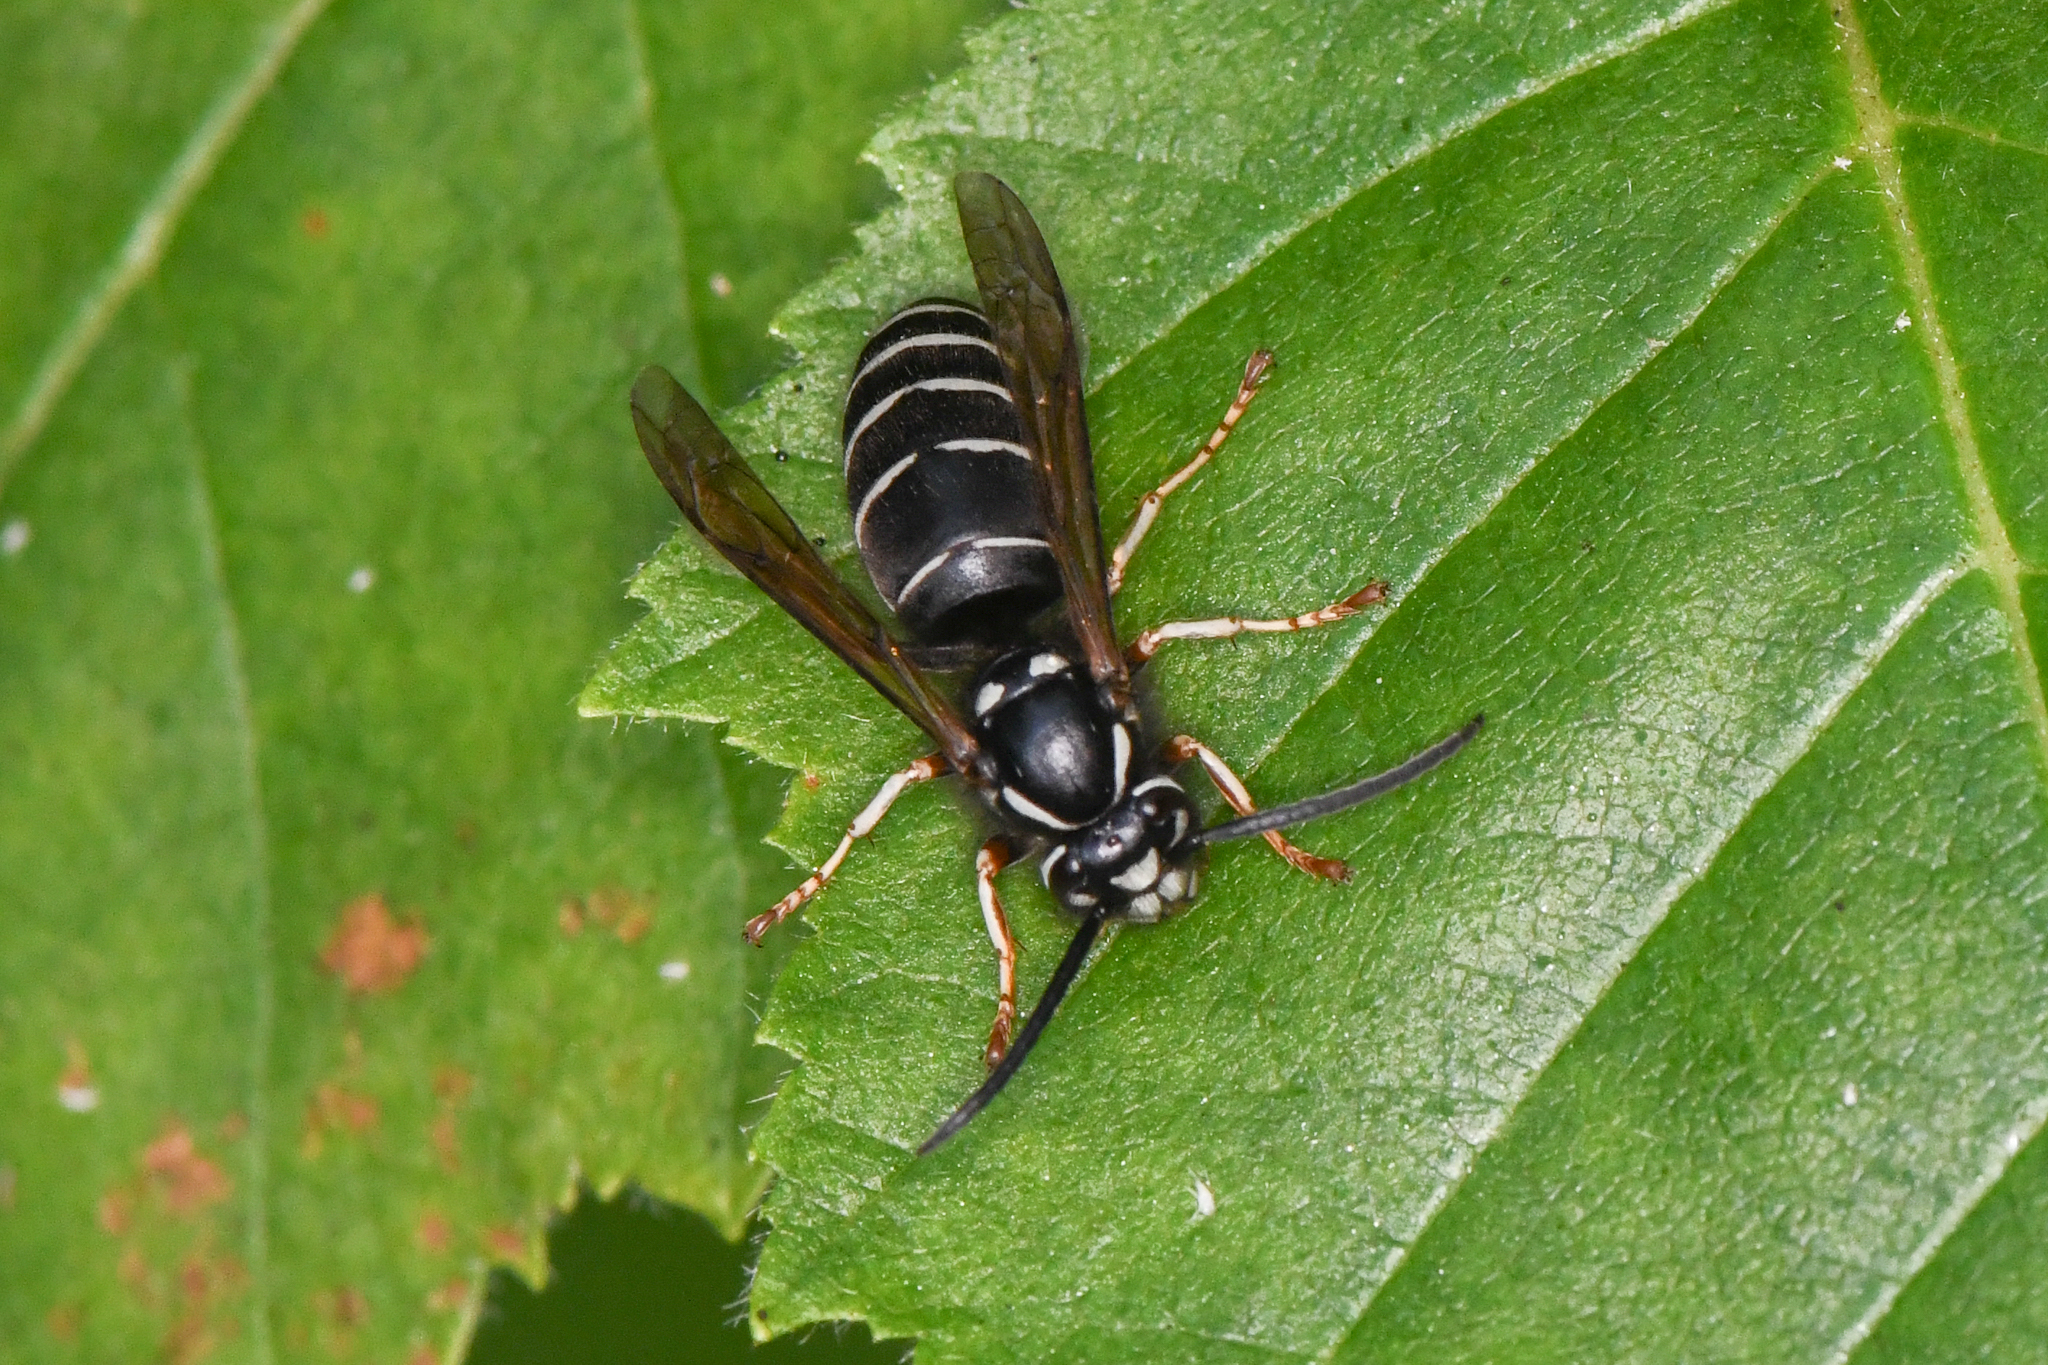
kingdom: Animalia
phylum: Arthropoda
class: Insecta
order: Hymenoptera
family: Vespidae
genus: Vespula
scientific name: Vespula consobrina
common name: Blackjacket
